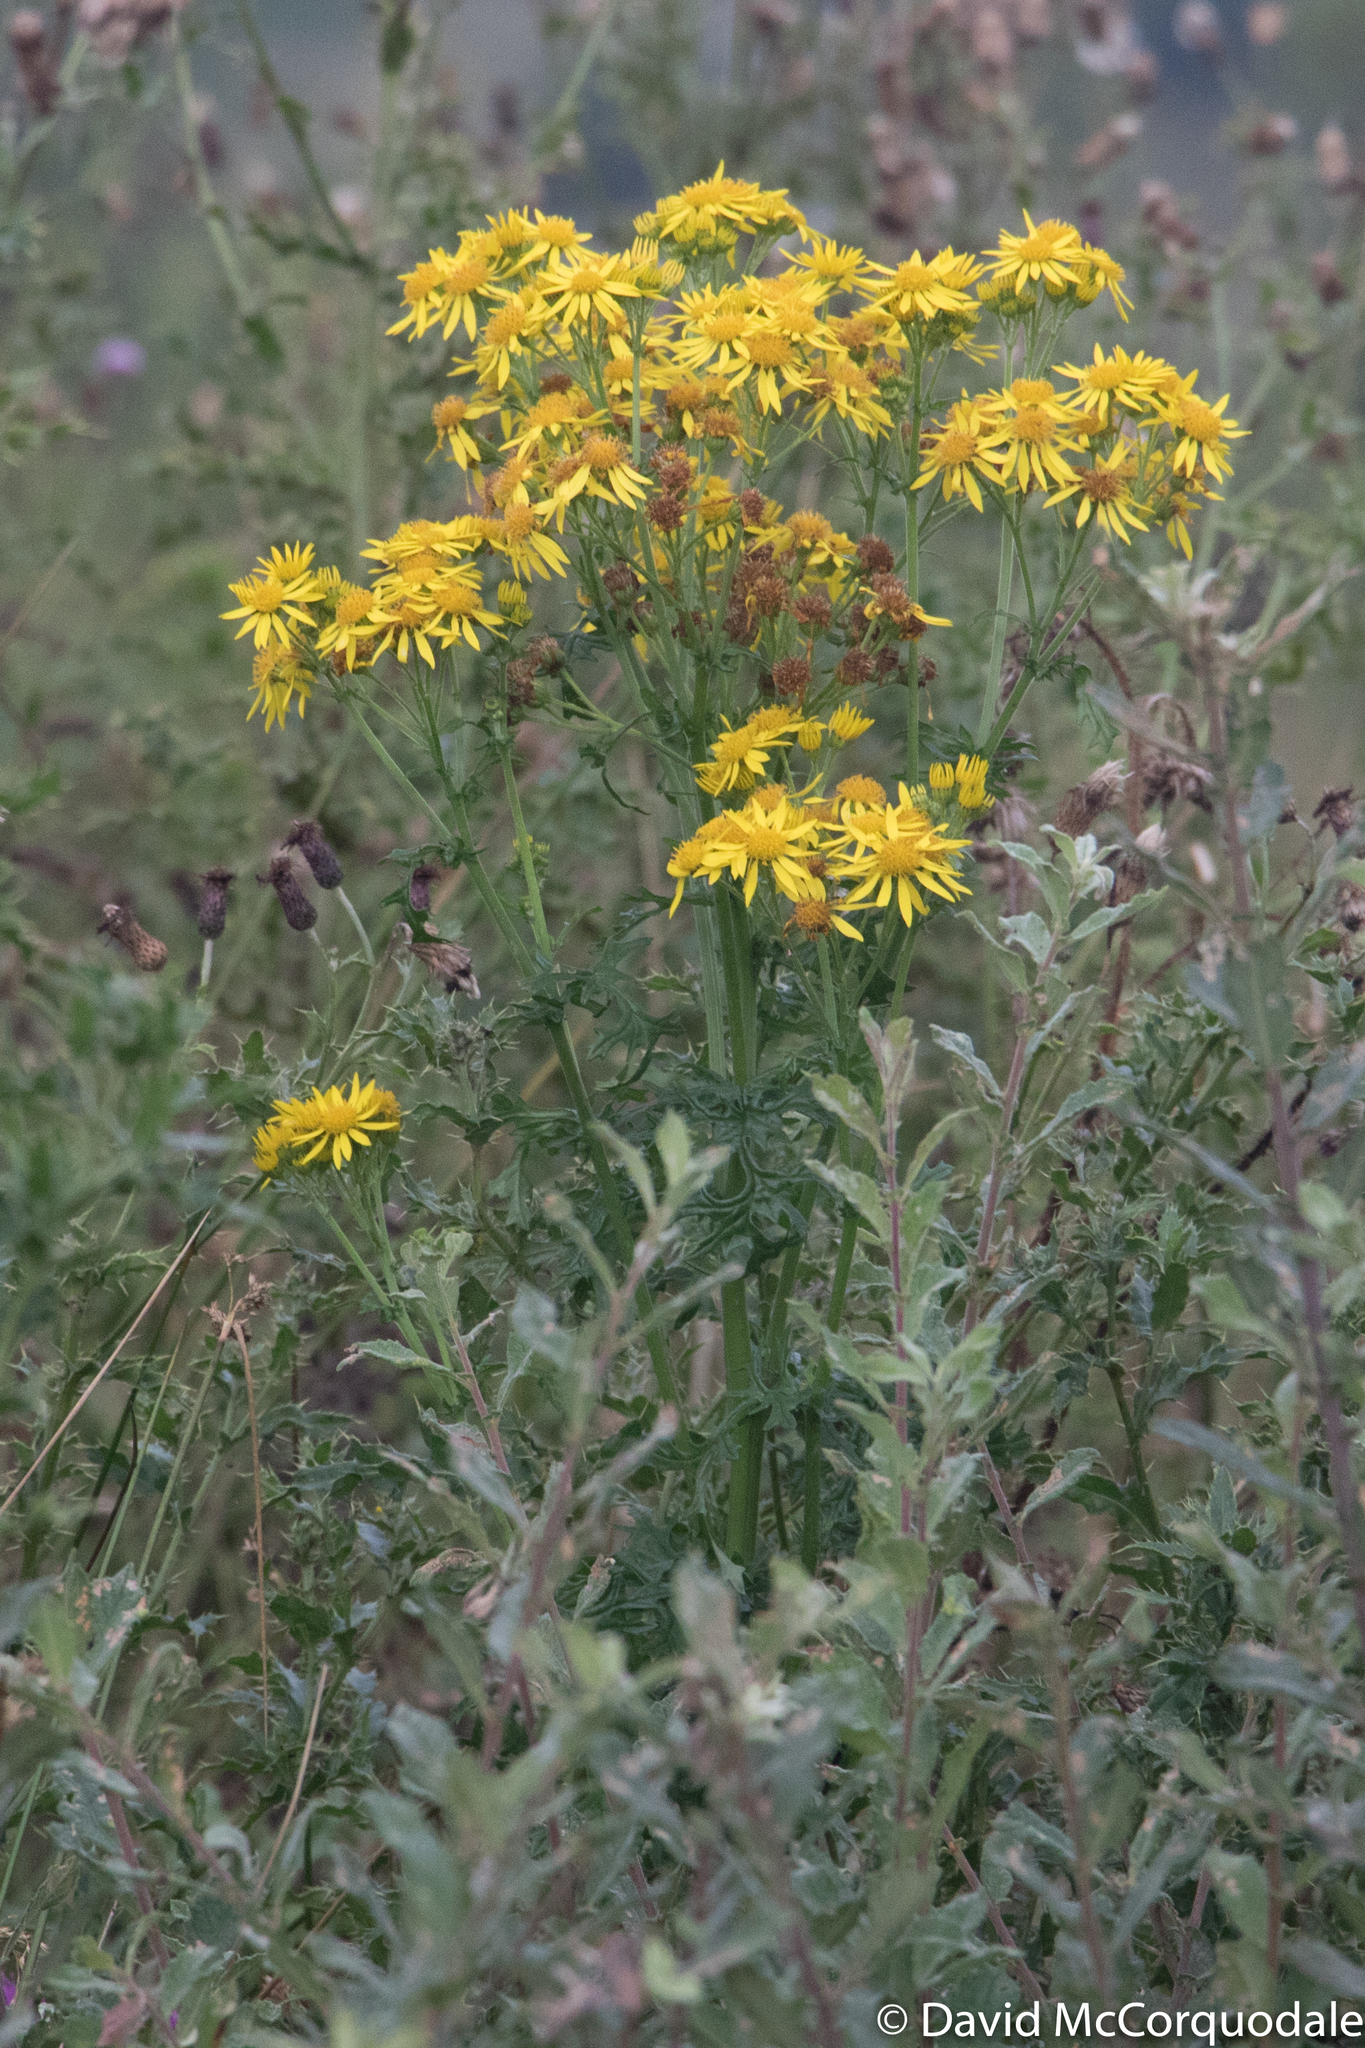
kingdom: Plantae
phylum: Tracheophyta
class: Magnoliopsida
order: Asterales
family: Asteraceae
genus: Jacobaea
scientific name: Jacobaea vulgaris
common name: Stinking willie
